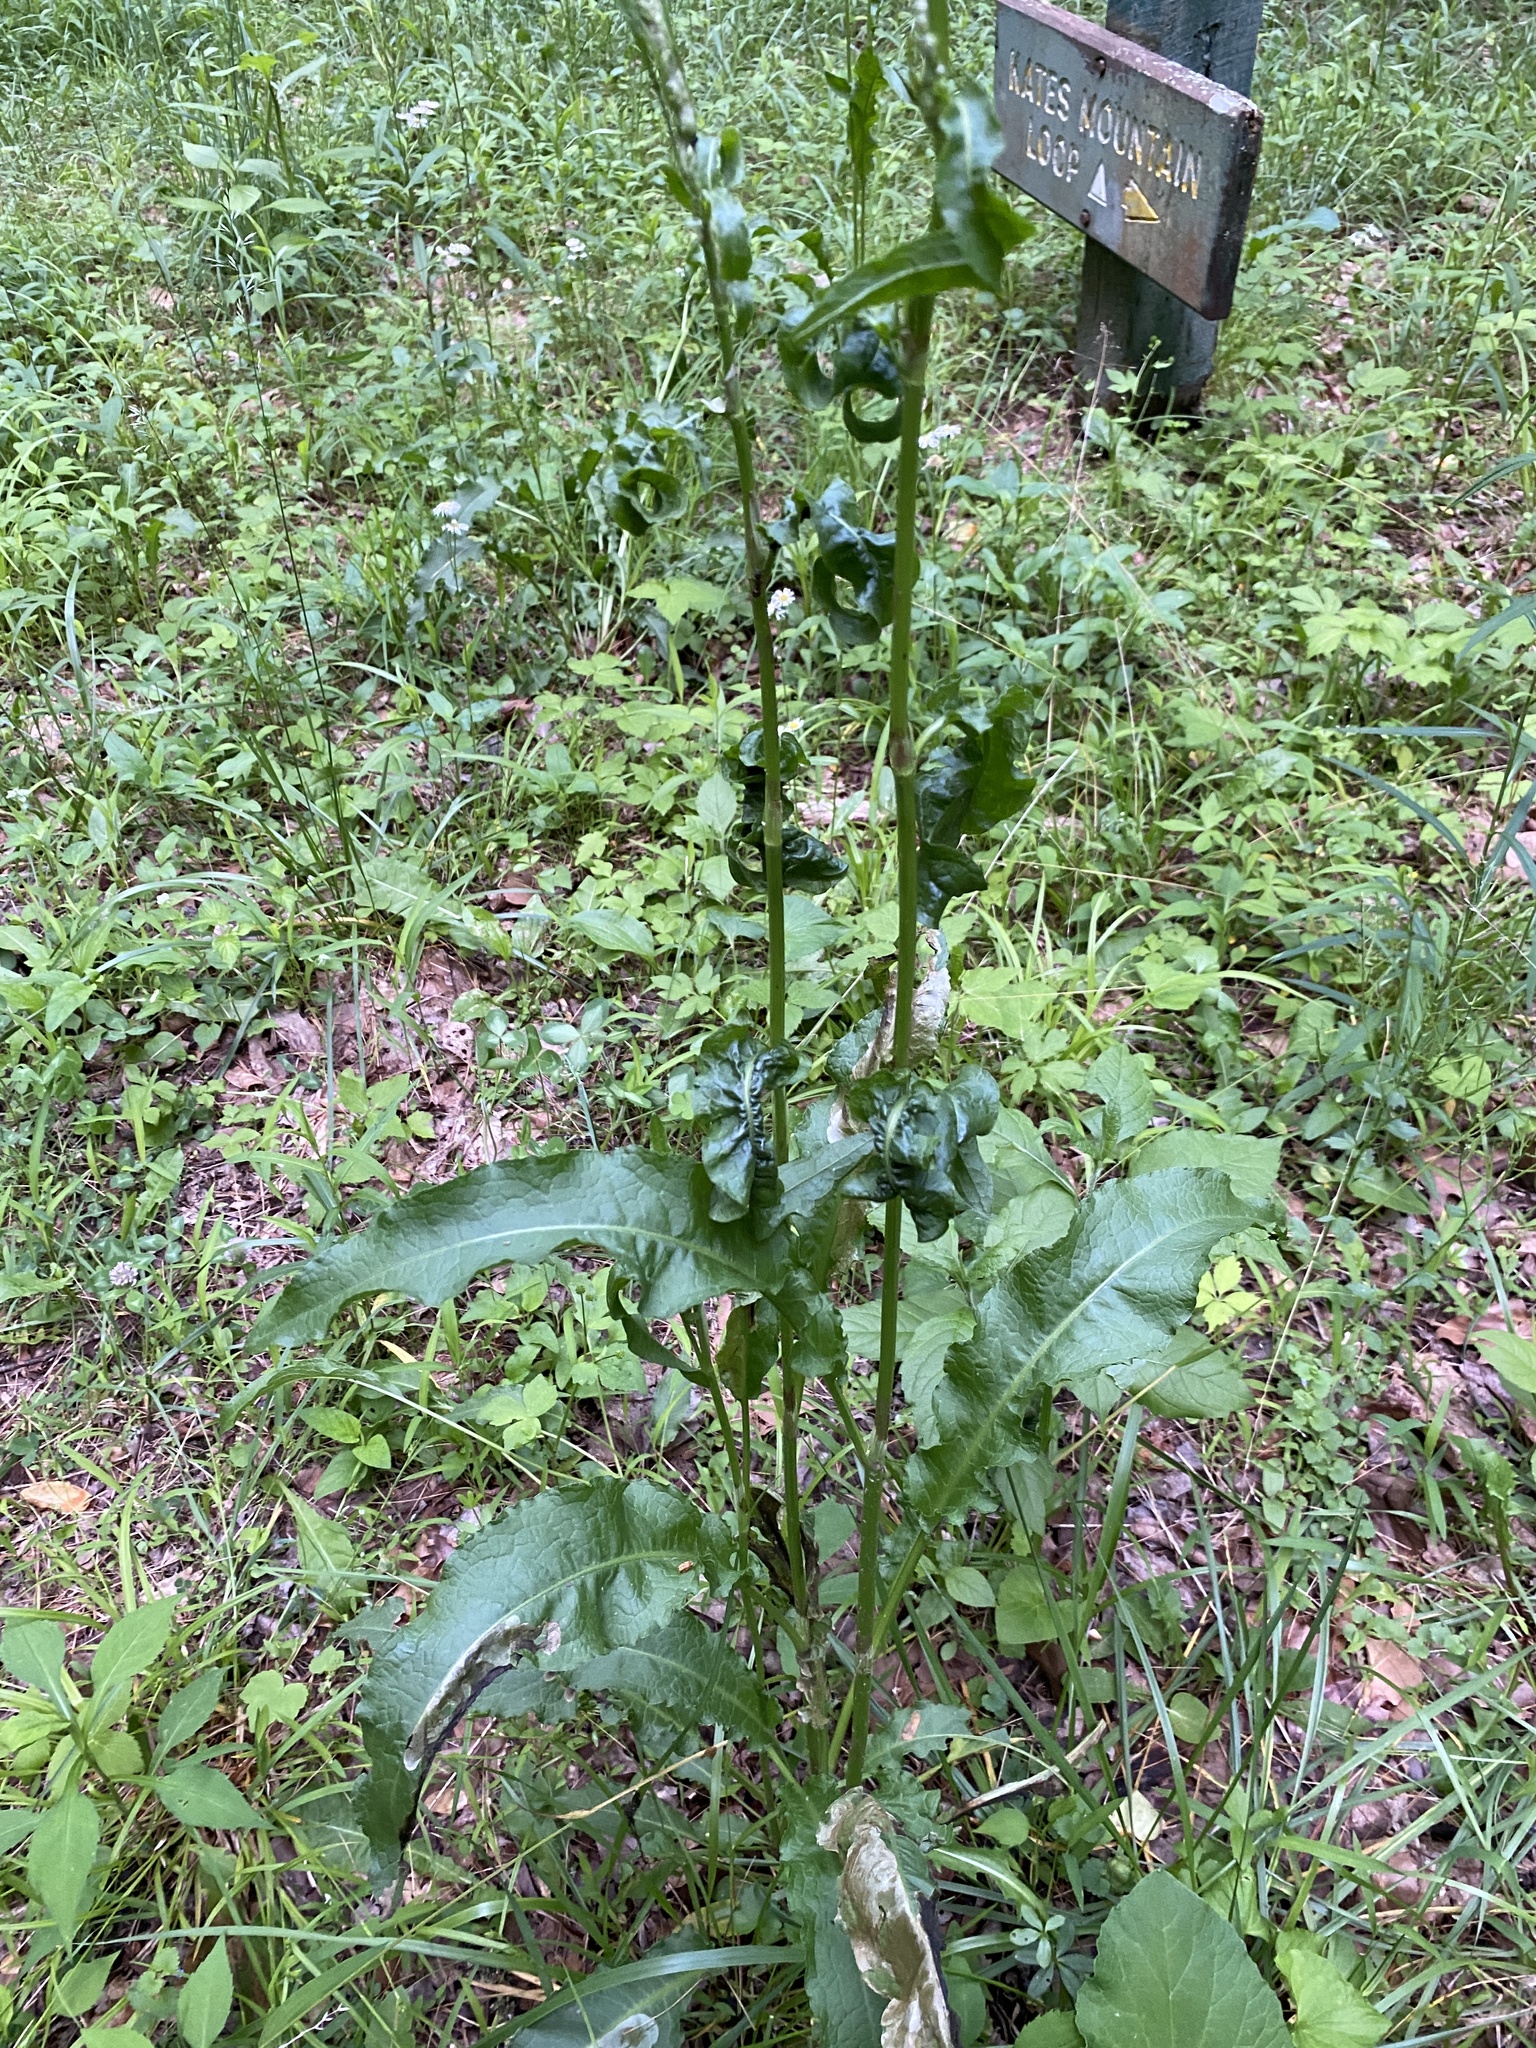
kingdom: Plantae
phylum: Tracheophyta
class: Magnoliopsida
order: Caryophyllales
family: Polygonaceae
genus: Rumex
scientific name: Rumex crispus
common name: Curled dock
